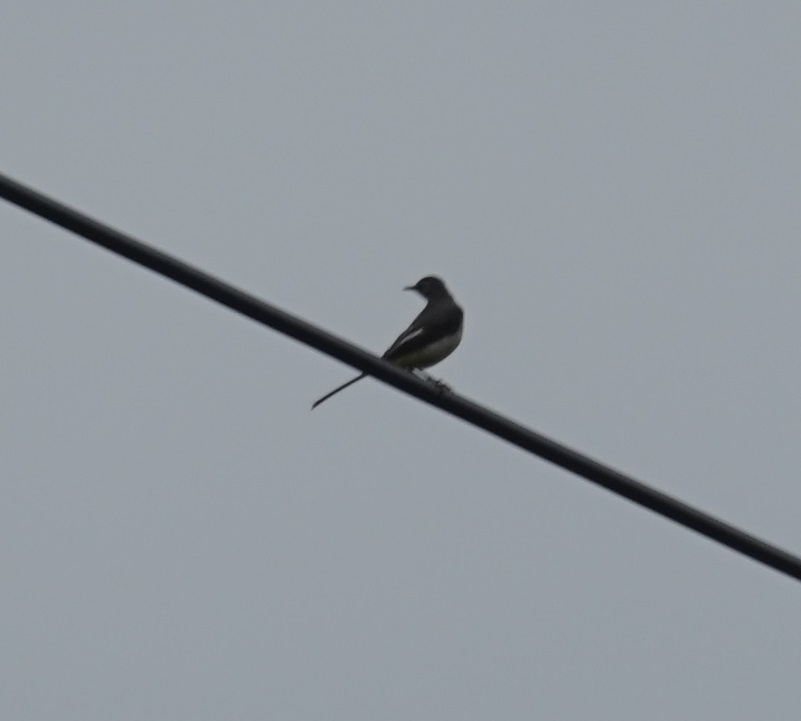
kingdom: Animalia
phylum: Chordata
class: Aves
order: Passeriformes
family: Muscicapidae
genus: Copsychus
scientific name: Copsychus saularis
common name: Oriental magpie-robin
